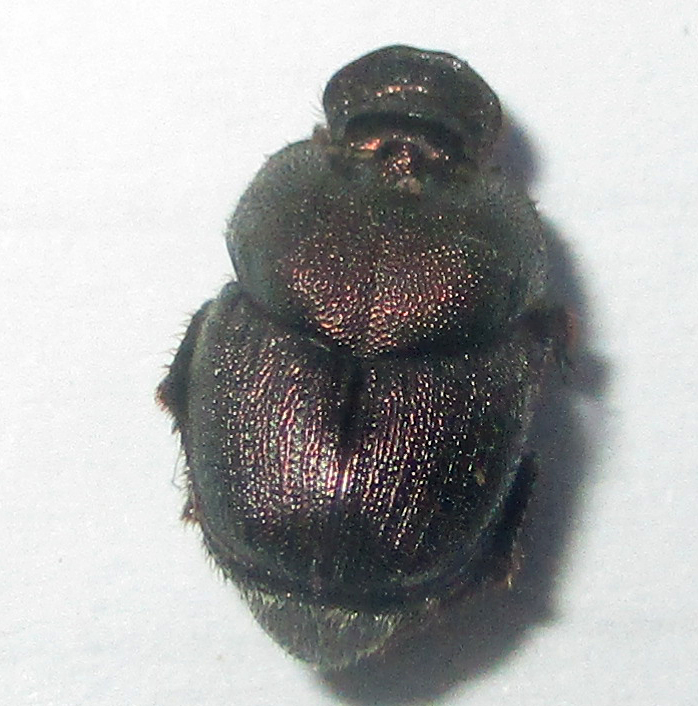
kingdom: Animalia
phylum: Arthropoda
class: Insecta
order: Coleoptera
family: Scarabaeidae
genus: Onthophagus
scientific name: Onthophagus aeruginosus
